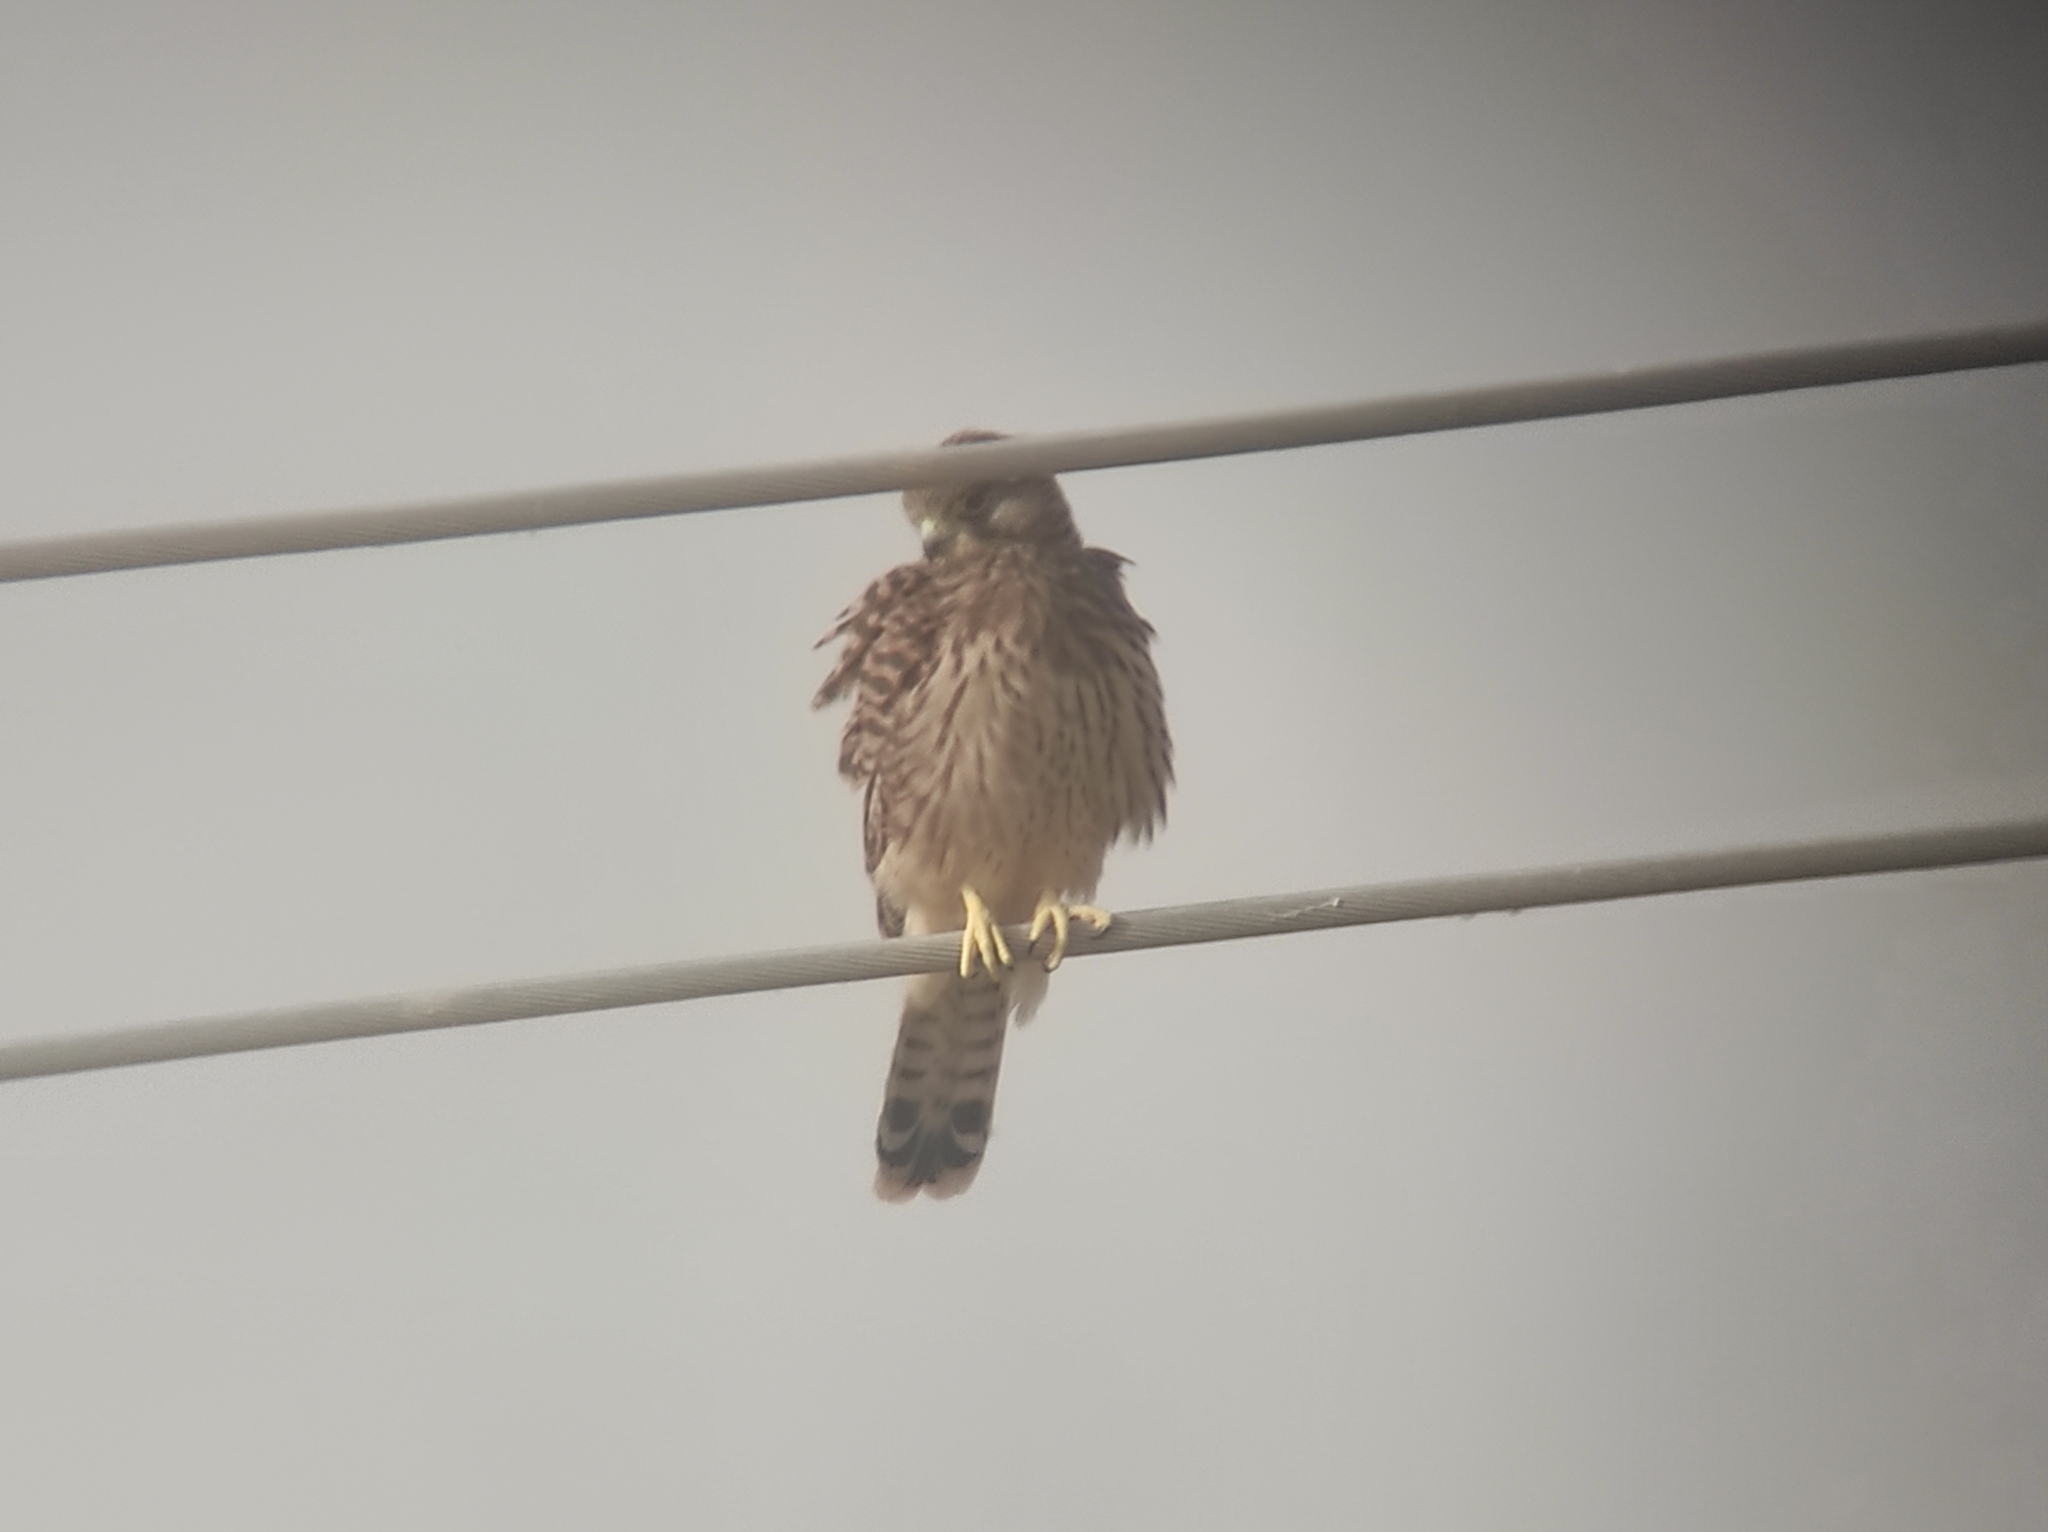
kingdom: Animalia
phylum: Chordata
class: Aves
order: Falconiformes
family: Falconidae
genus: Falco
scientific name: Falco tinnunculus
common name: Common kestrel
